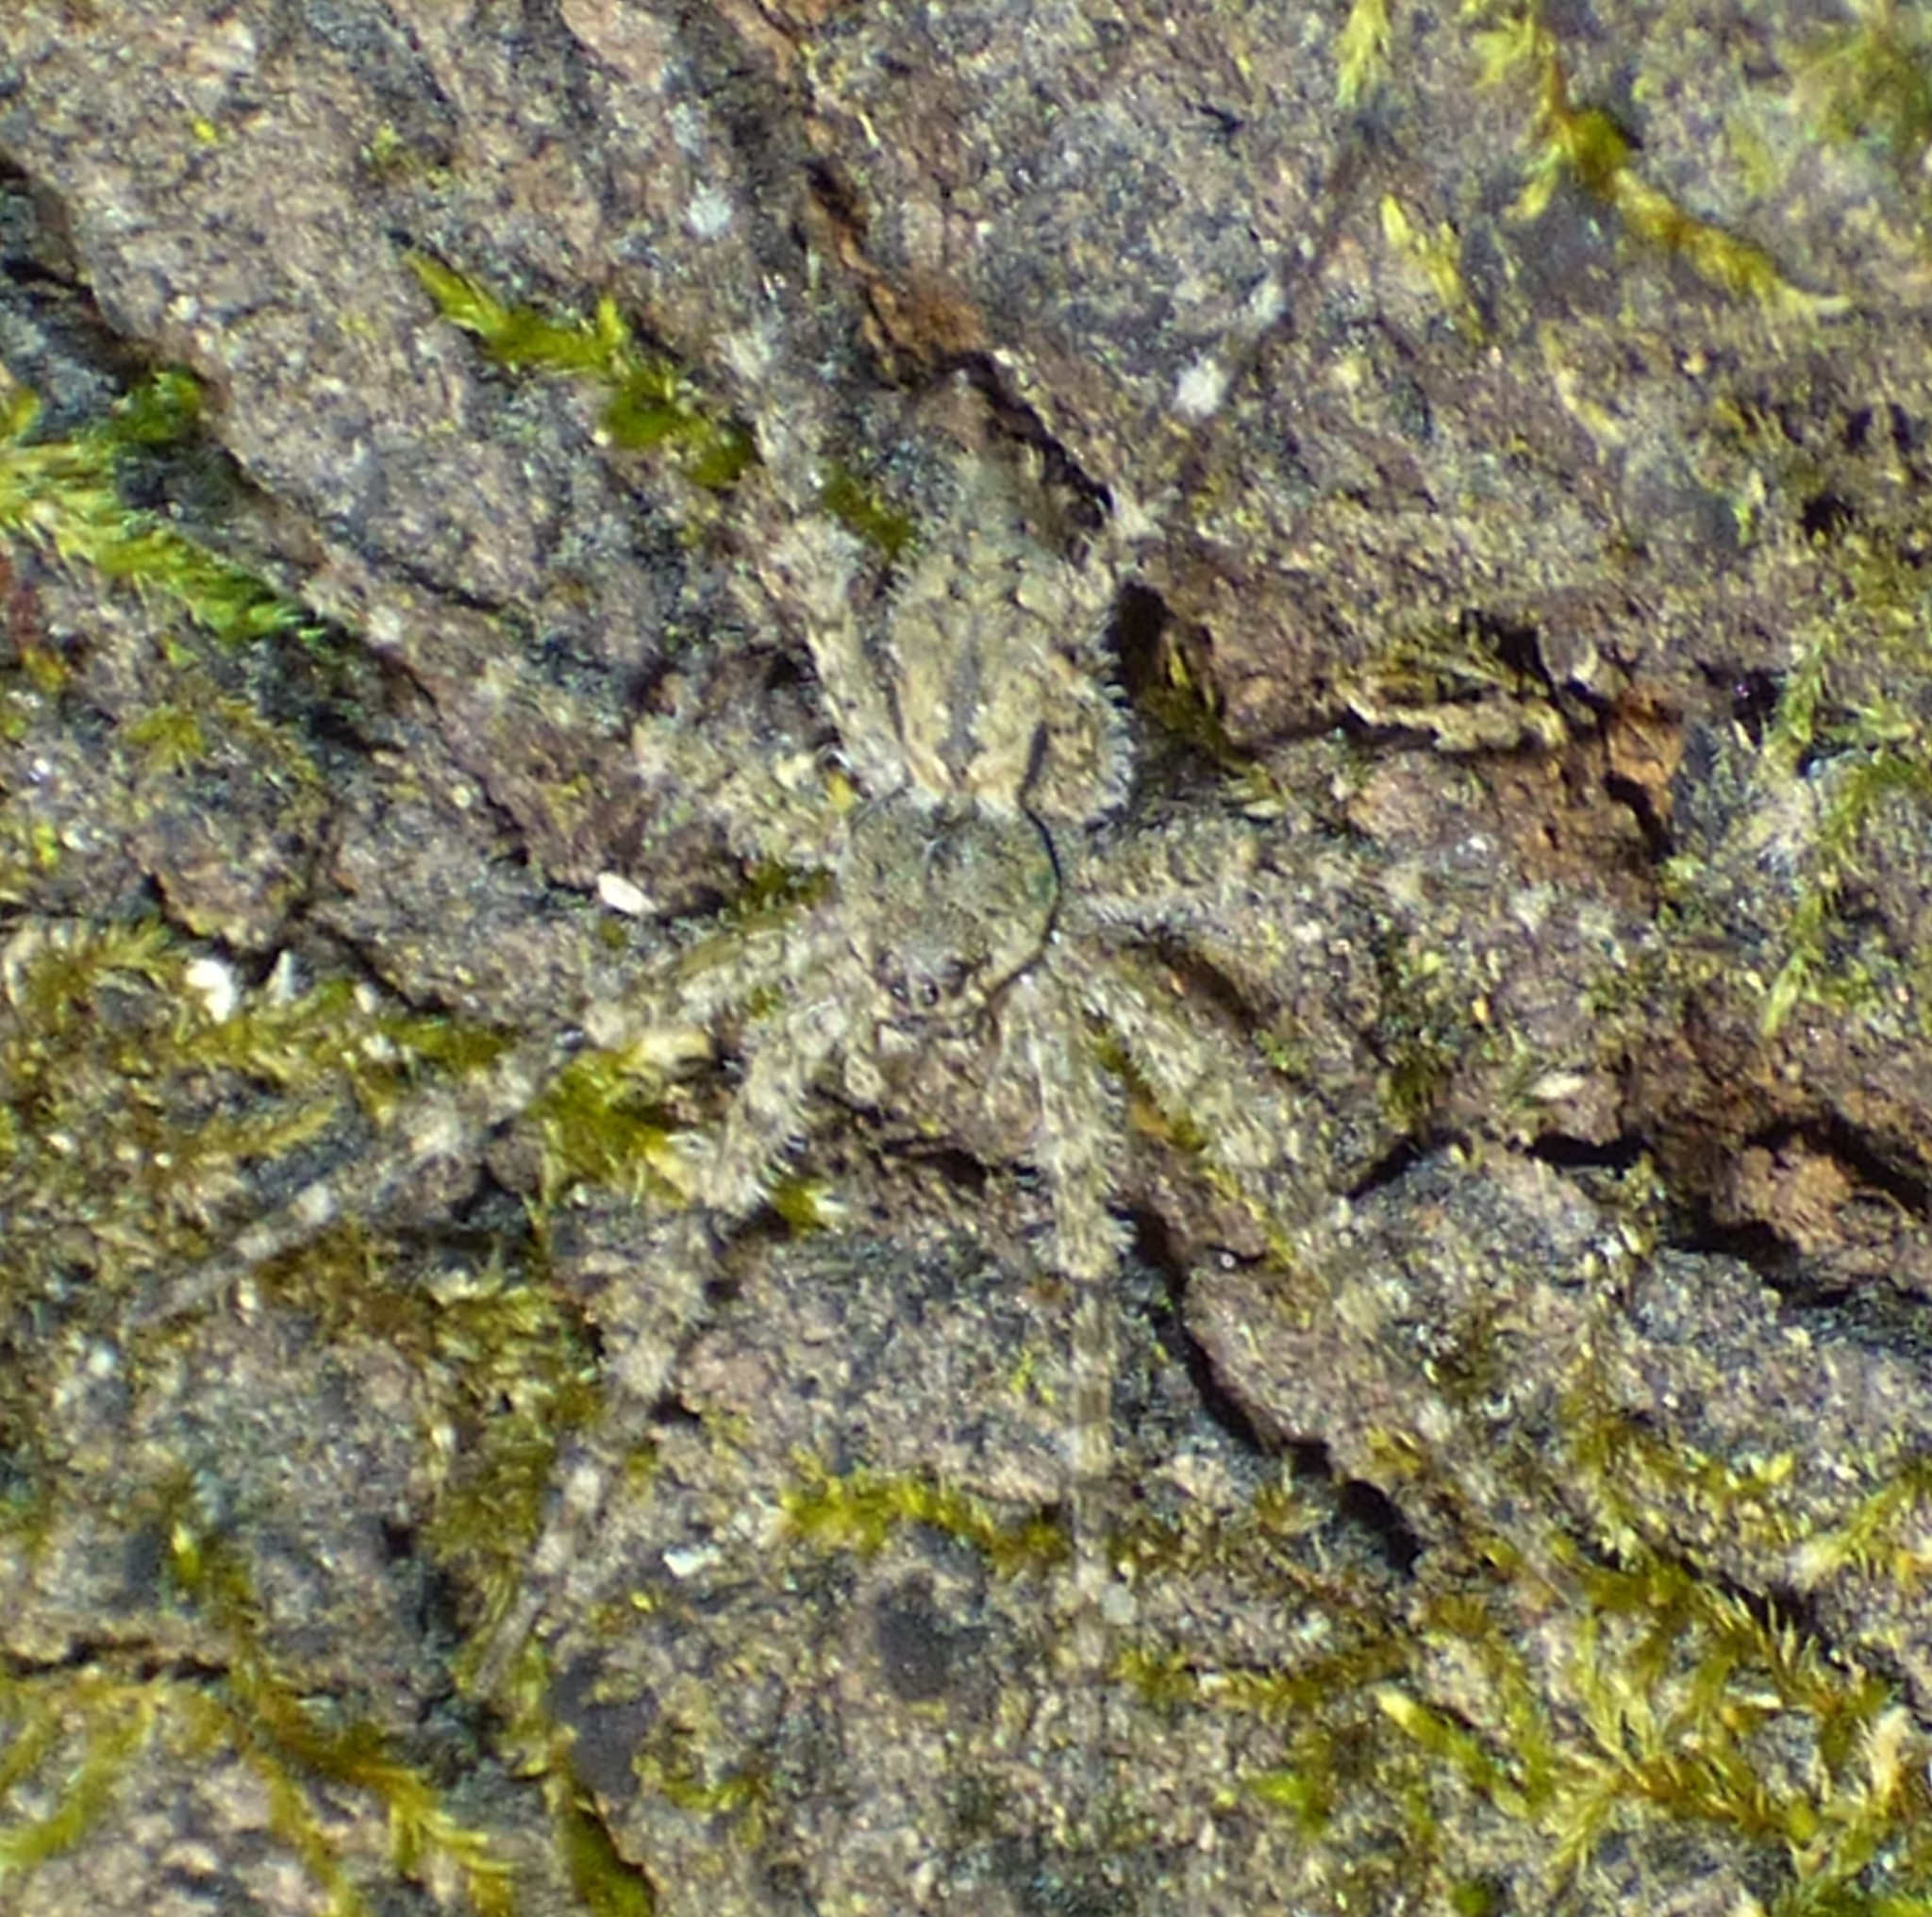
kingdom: Animalia
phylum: Arthropoda
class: Arachnida
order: Araneae
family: Pisauridae
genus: Dolomedes
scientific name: Dolomedes albineus
